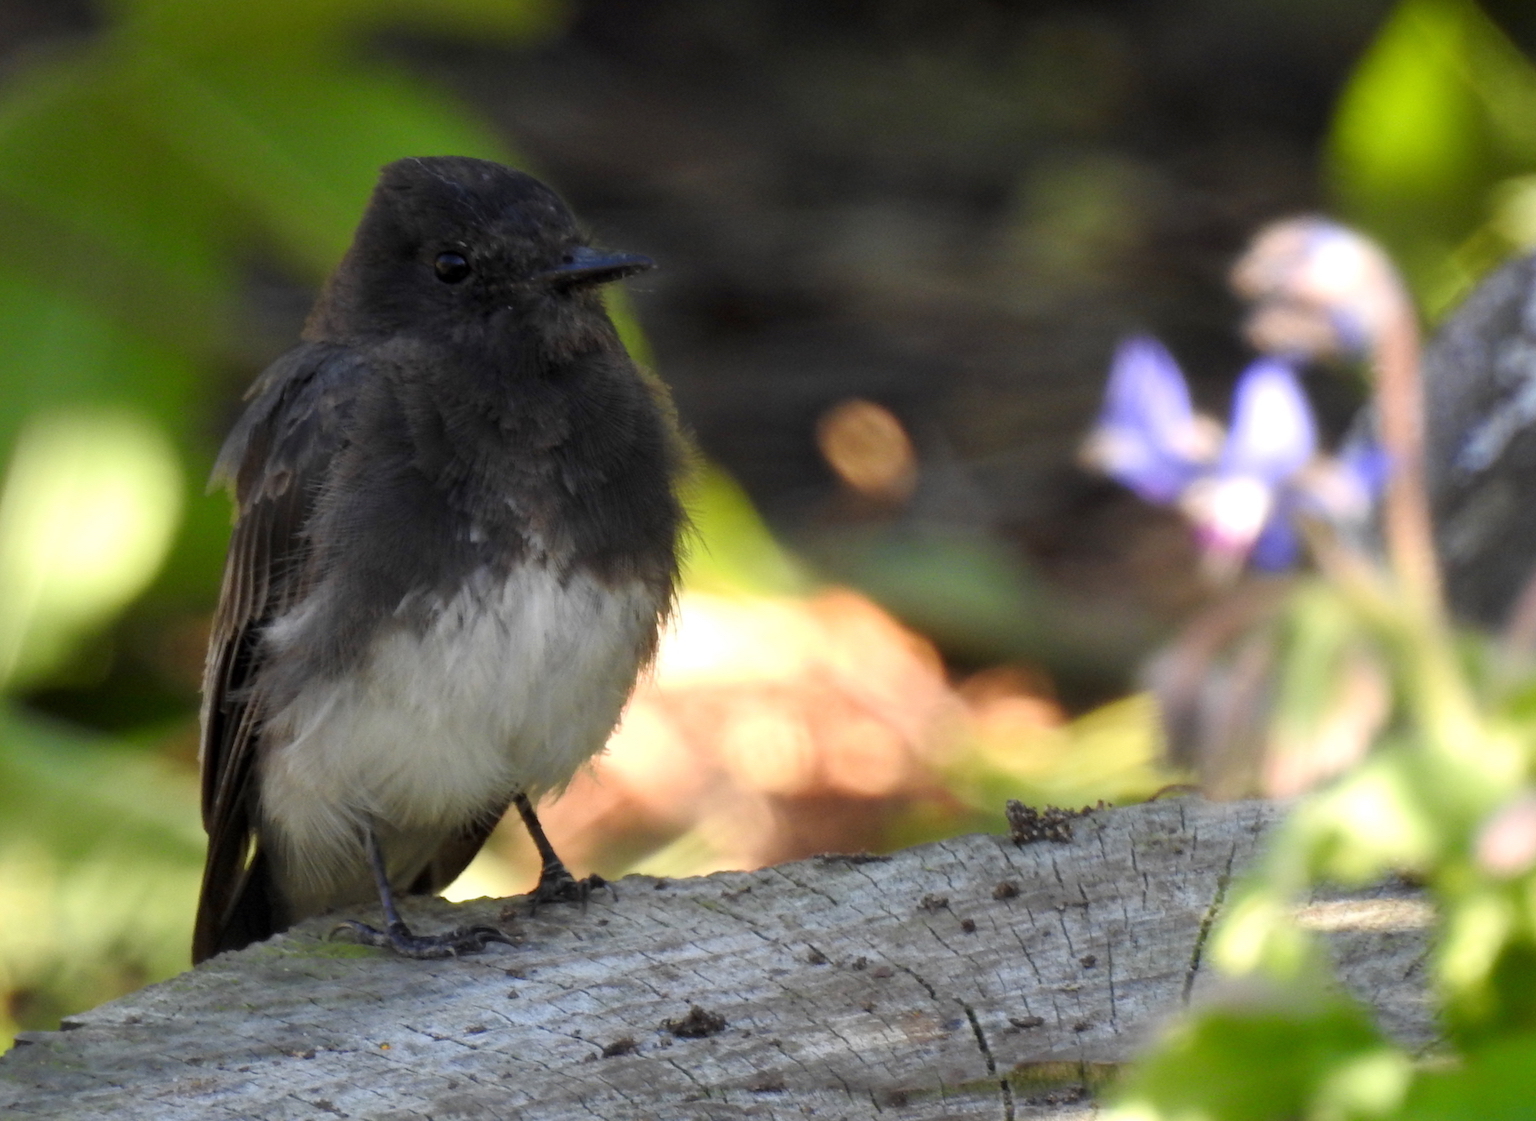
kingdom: Animalia
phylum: Chordata
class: Aves
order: Passeriformes
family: Tyrannidae
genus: Sayornis
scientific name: Sayornis nigricans
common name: Black phoebe
